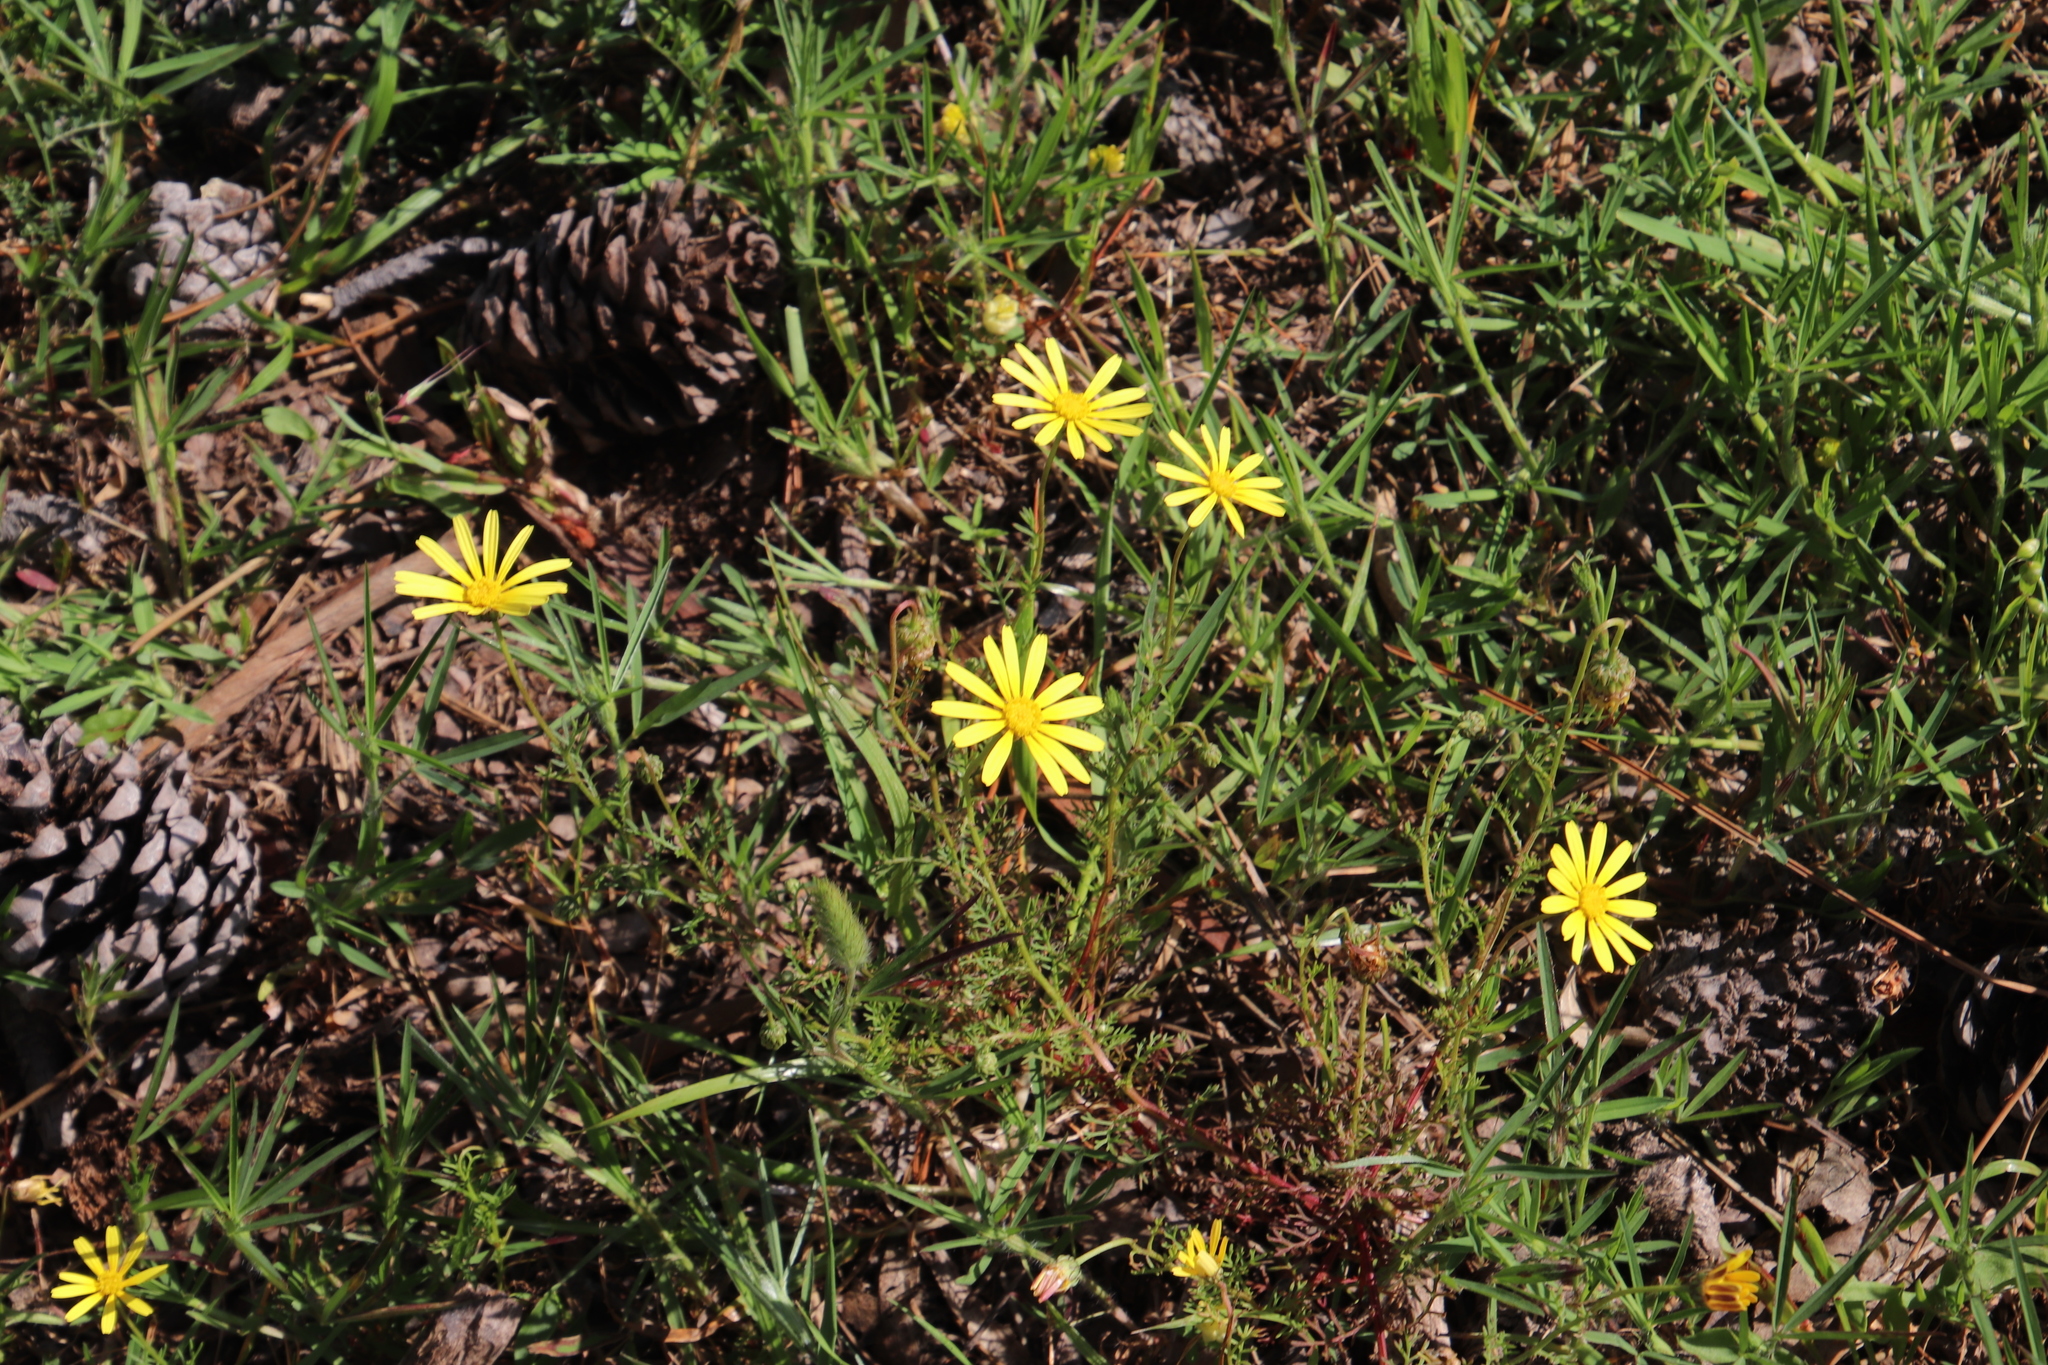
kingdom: Plantae
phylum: Tracheophyta
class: Magnoliopsida
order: Asterales
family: Asteraceae
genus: Ursinia
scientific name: Ursinia anthemoides
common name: Ursinia
